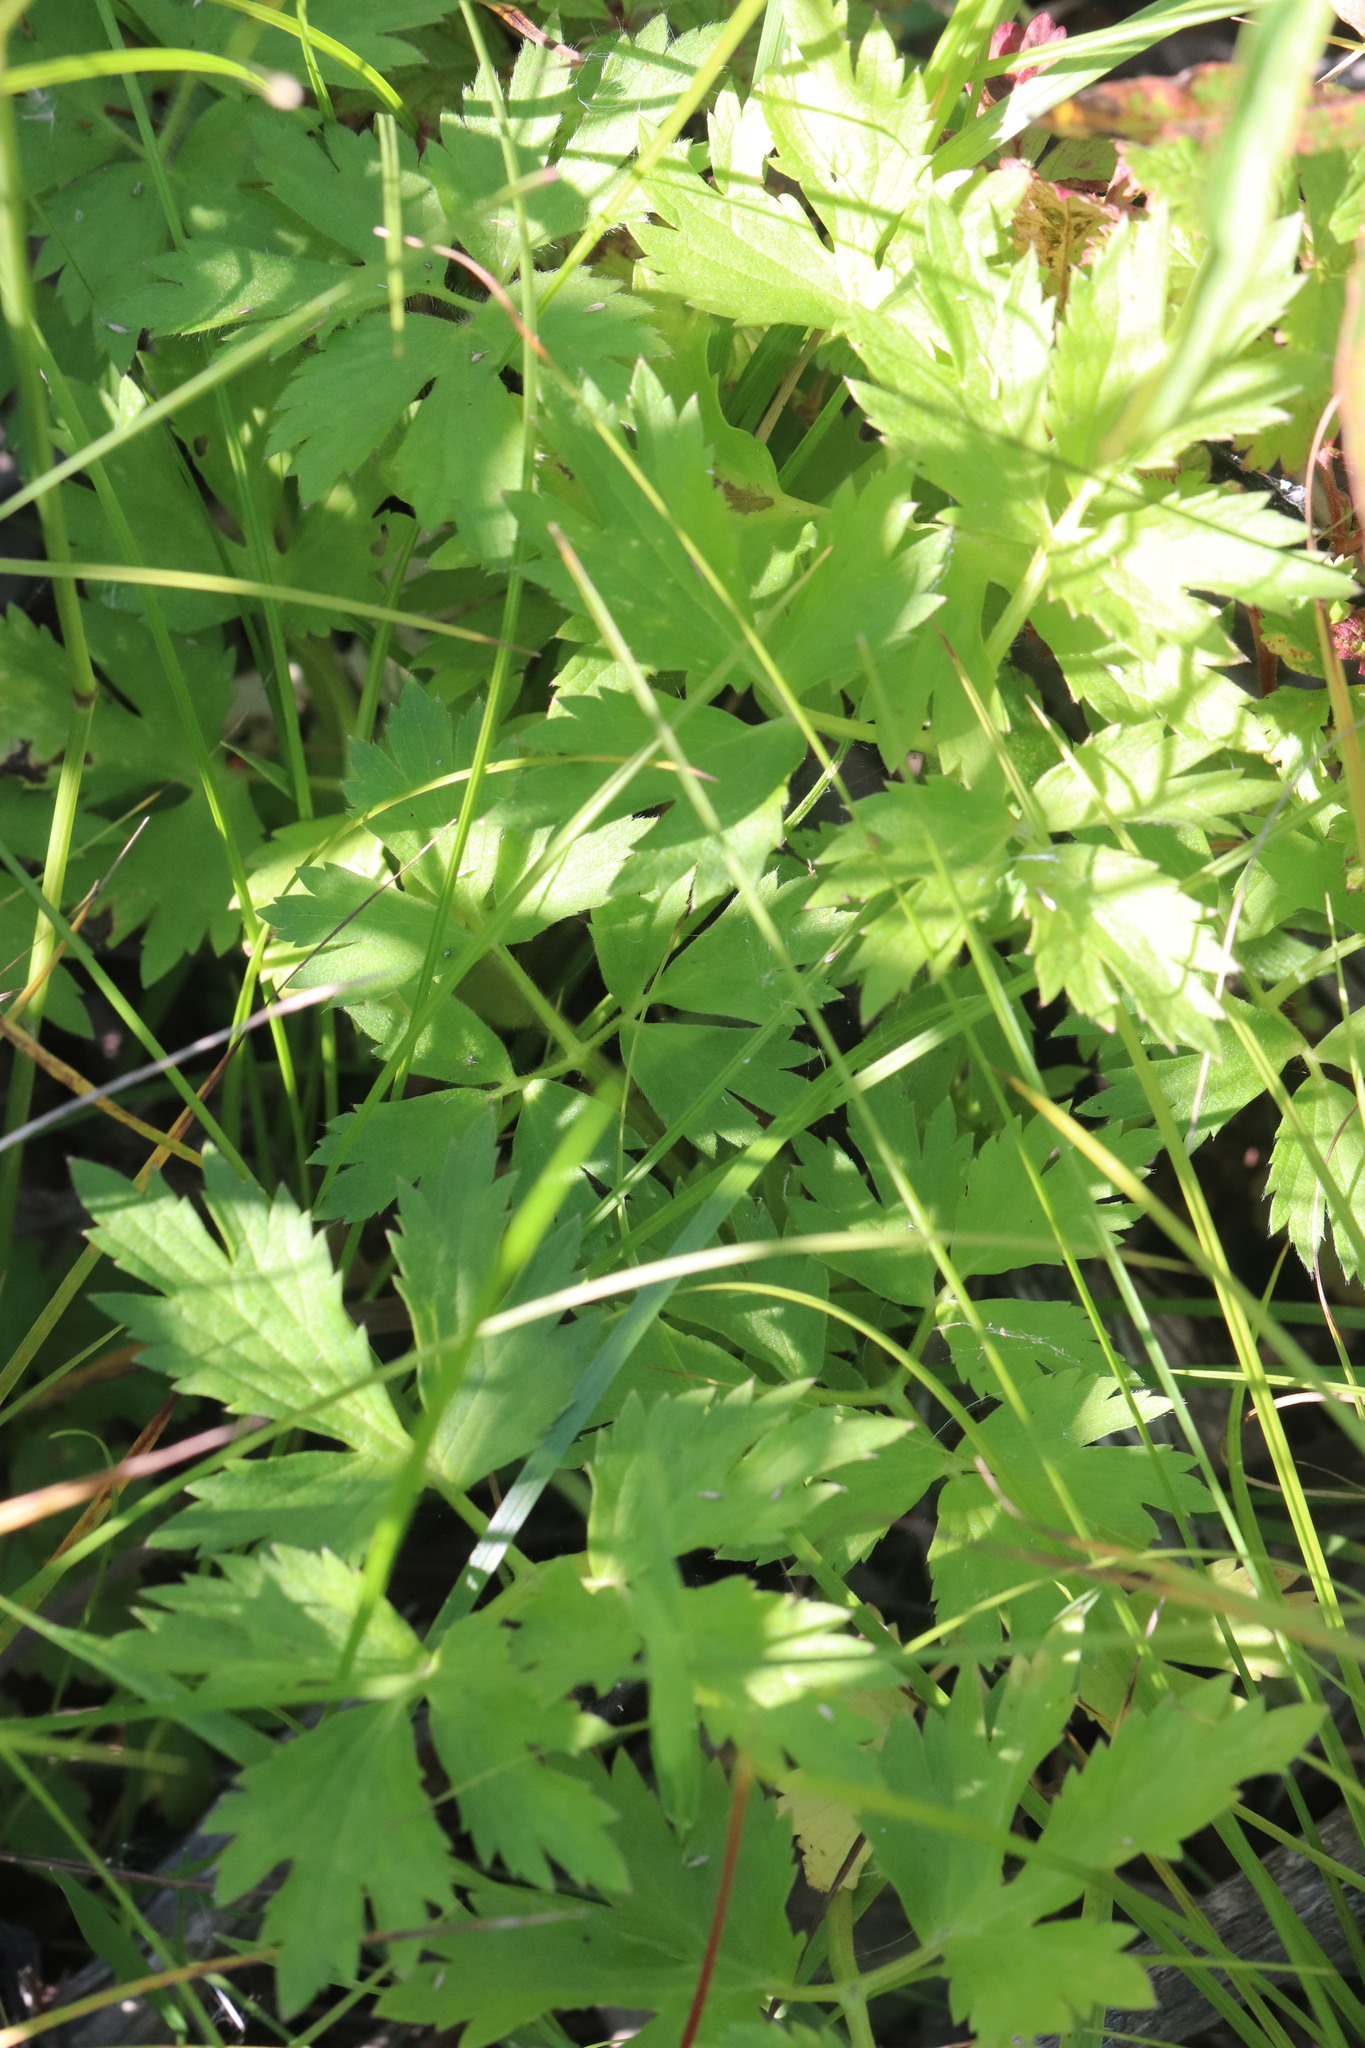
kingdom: Plantae
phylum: Tracheophyta
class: Magnoliopsida
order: Ranunculales
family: Ranunculaceae
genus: Ranunculus
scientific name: Ranunculus repens
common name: Creeping buttercup
